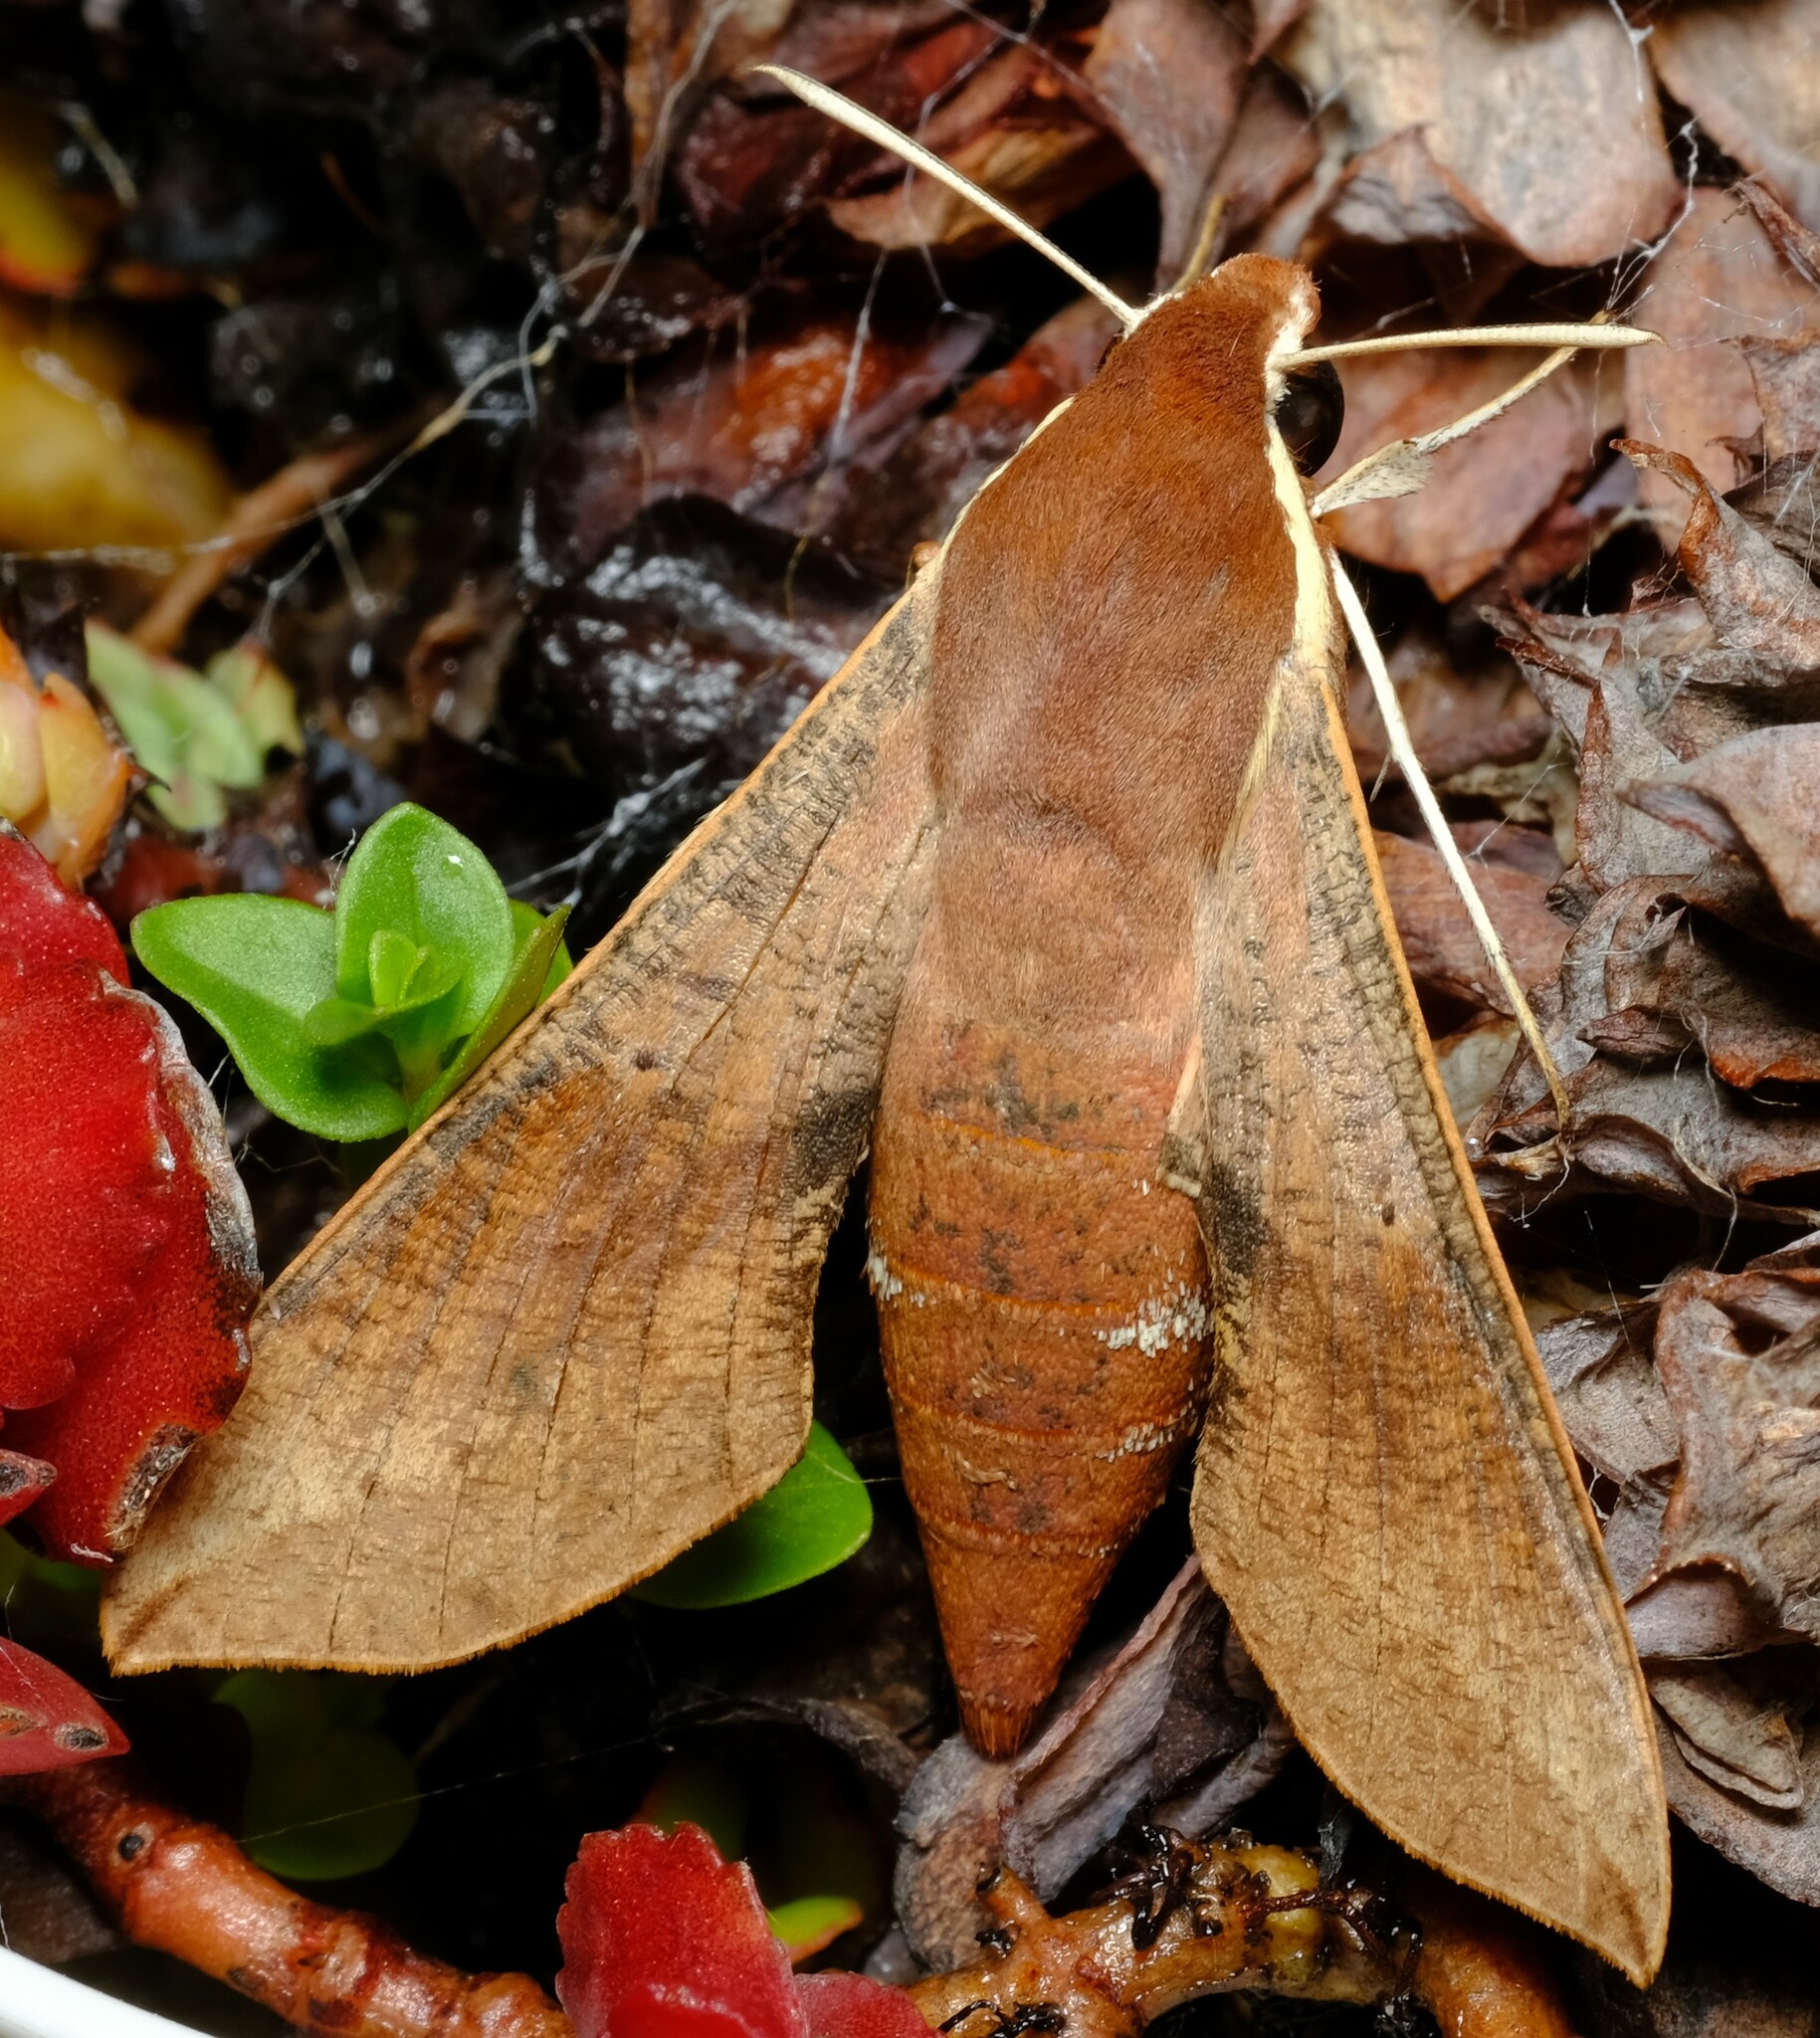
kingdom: Animalia
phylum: Arthropoda
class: Insecta
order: Lepidoptera
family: Sphingidae
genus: Hippotion
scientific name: Hippotion scrofa
